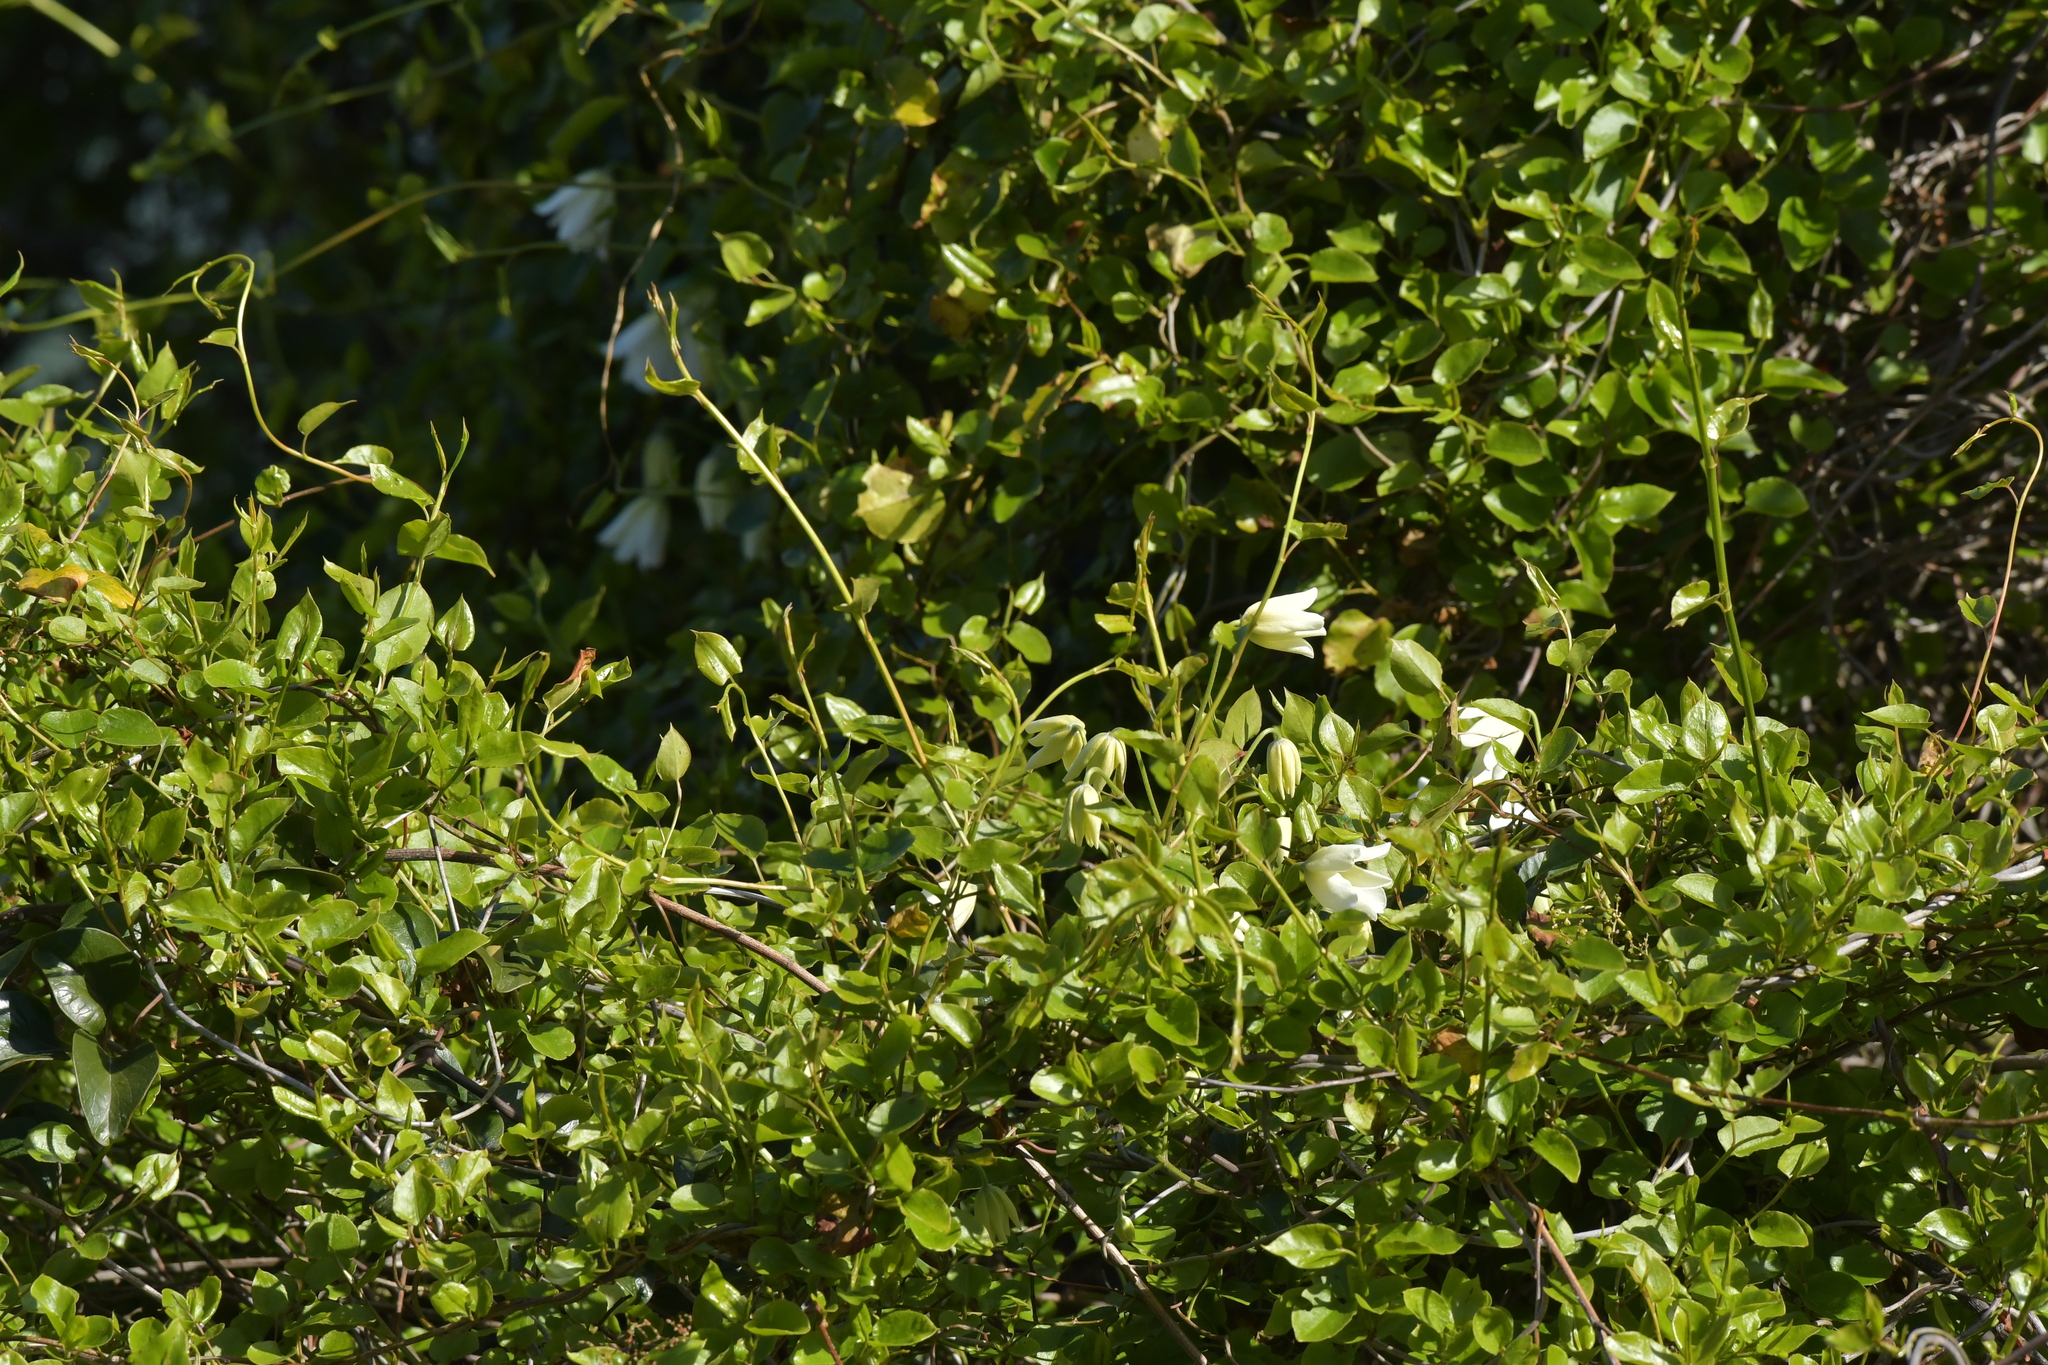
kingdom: Plantae
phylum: Tracheophyta
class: Magnoliopsida
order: Ranunculales
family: Ranunculaceae
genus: Clematis
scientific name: Clematis paniculata
